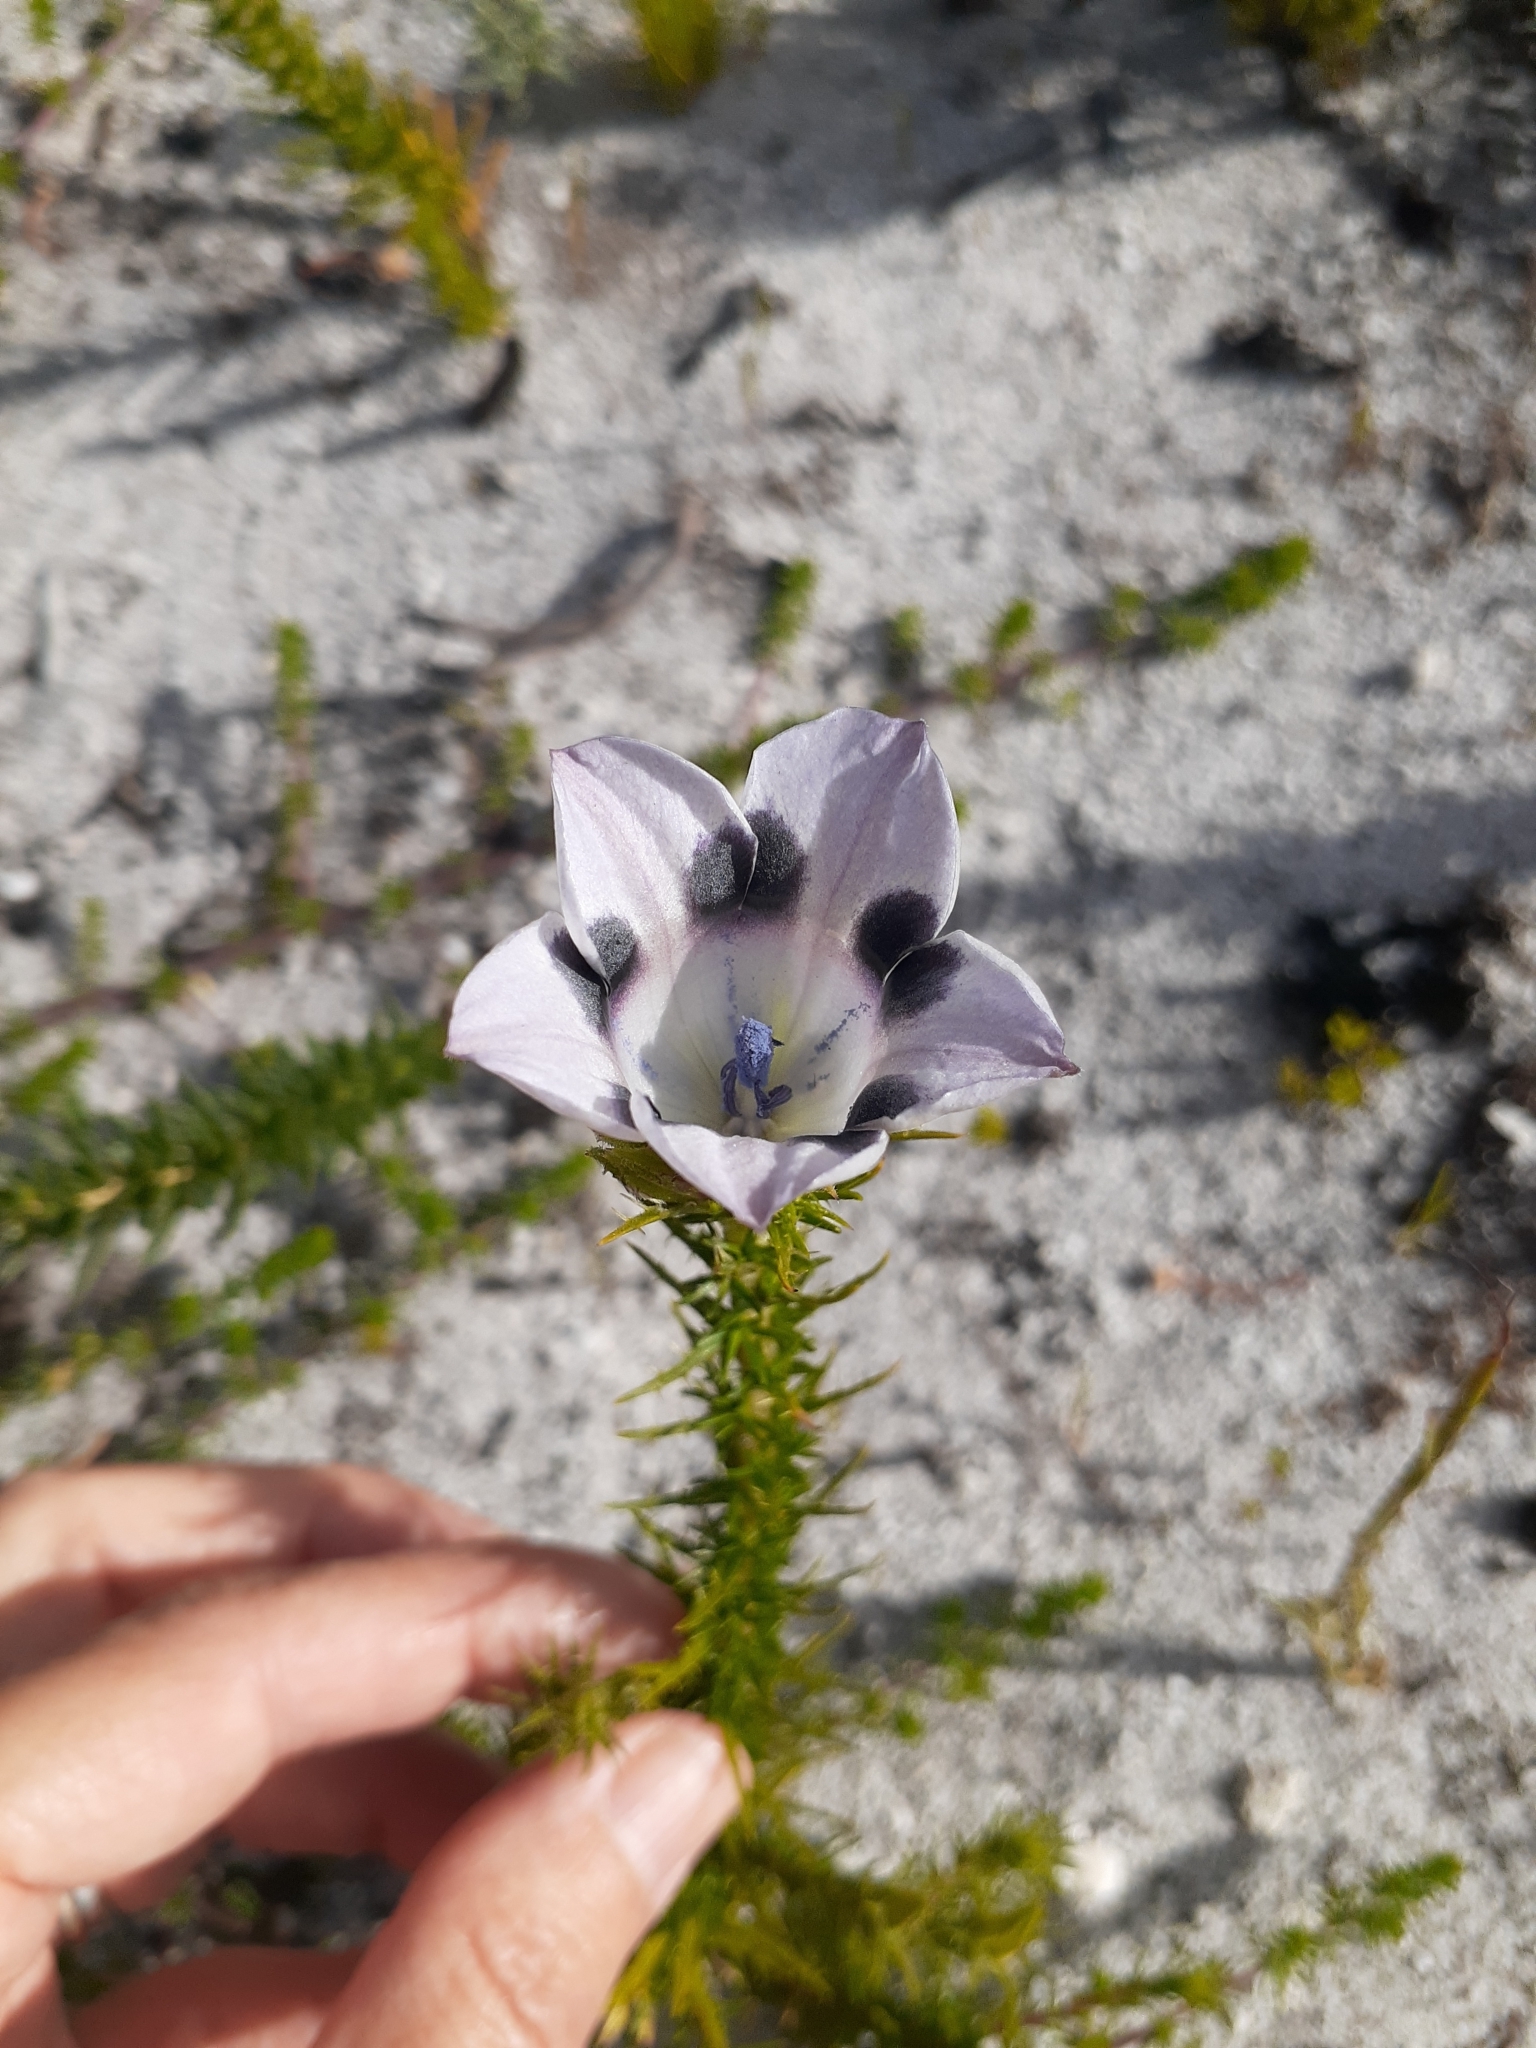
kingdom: Plantae
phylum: Tracheophyta
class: Magnoliopsida
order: Asterales
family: Campanulaceae
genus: Roella
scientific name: Roella maculata
